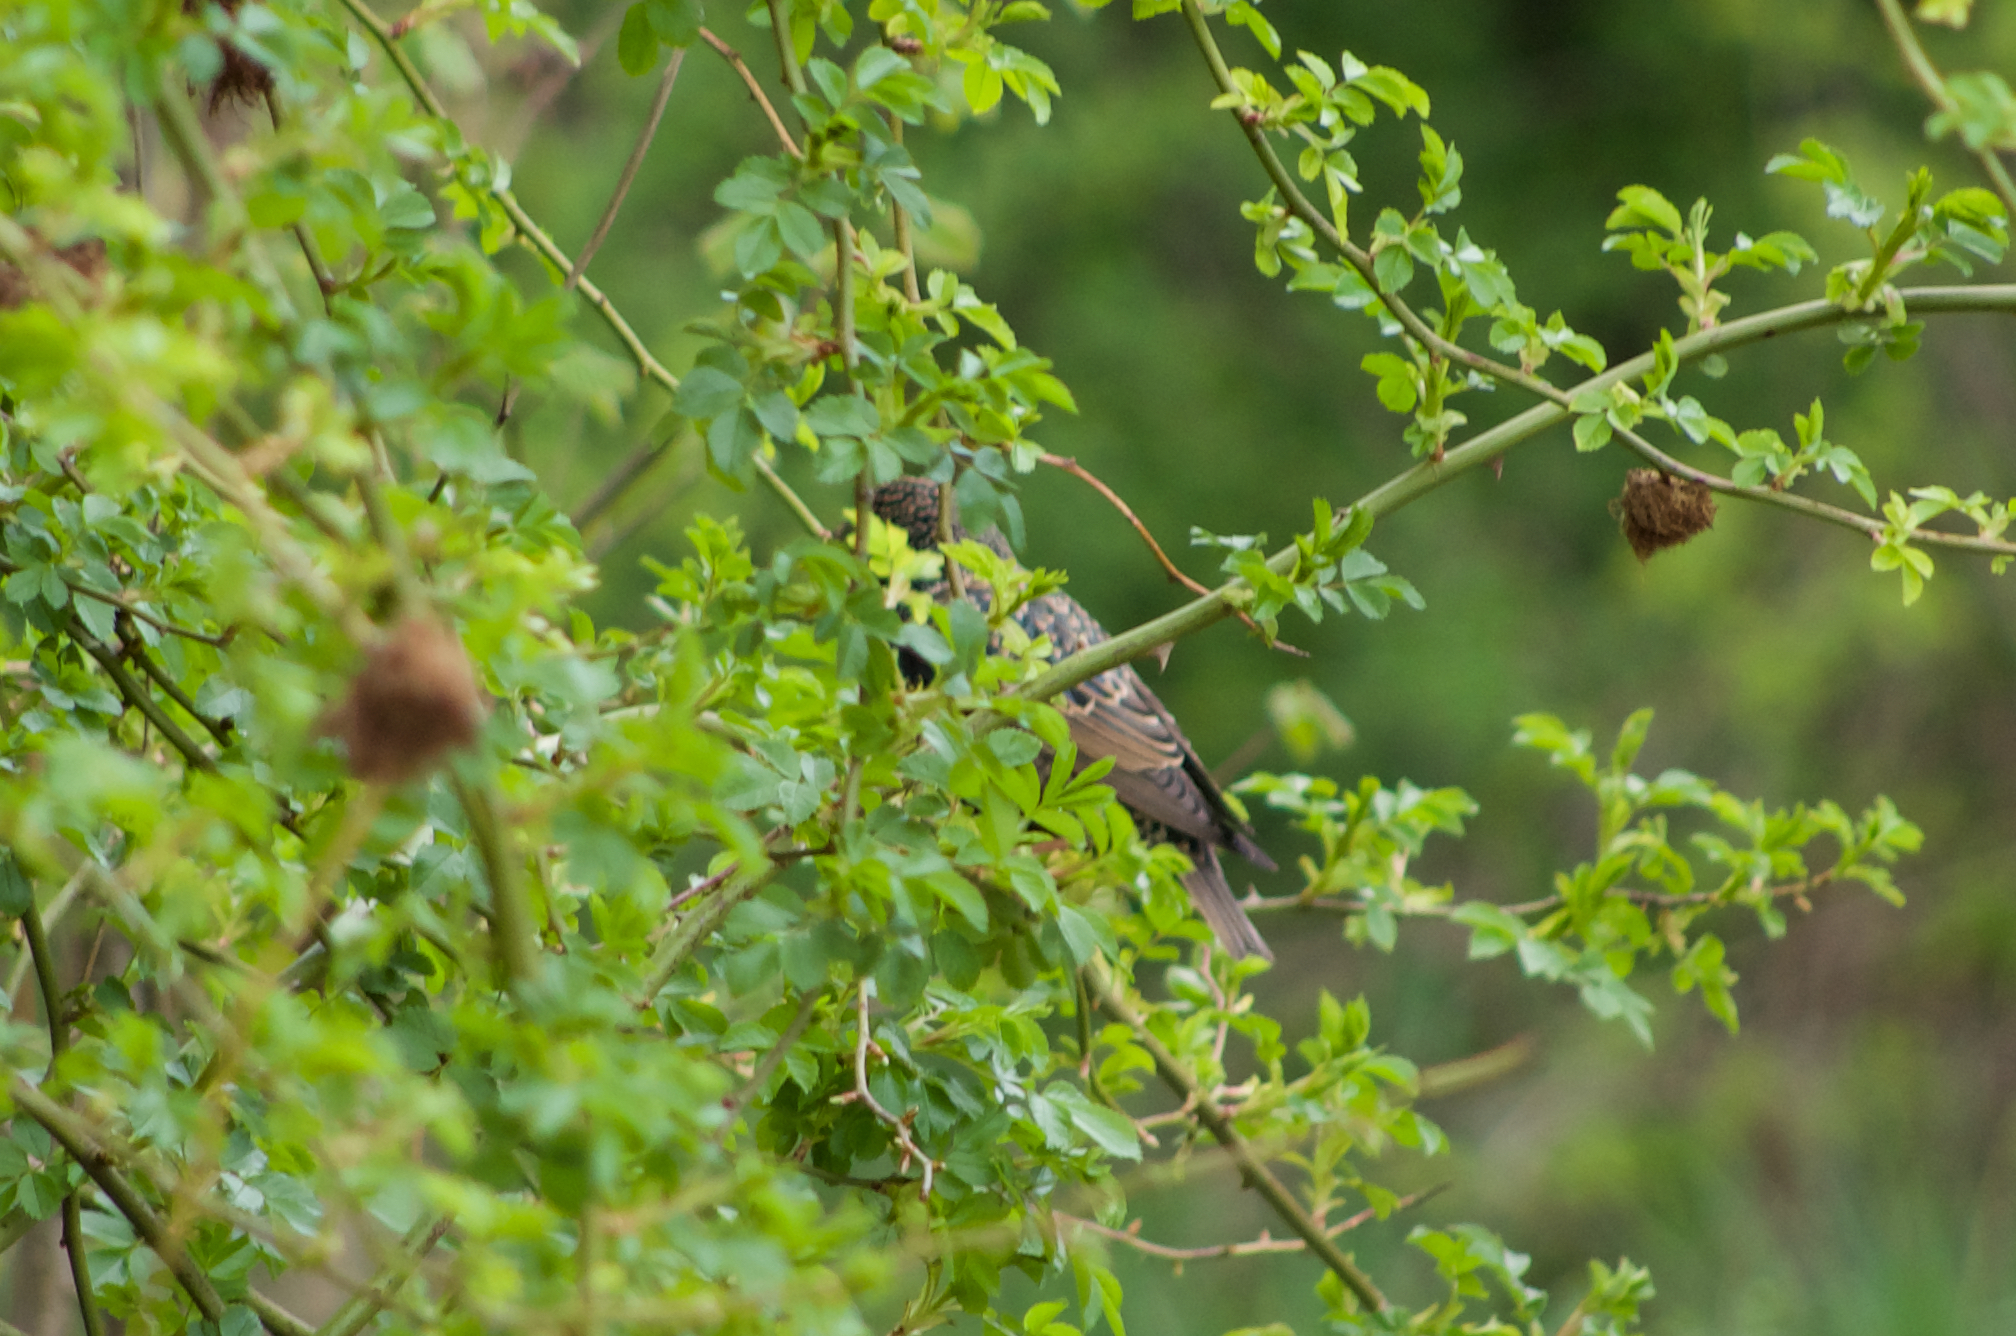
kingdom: Animalia
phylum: Chordata
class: Aves
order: Passeriformes
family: Sturnidae
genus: Sturnus
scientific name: Sturnus vulgaris
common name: Common starling
